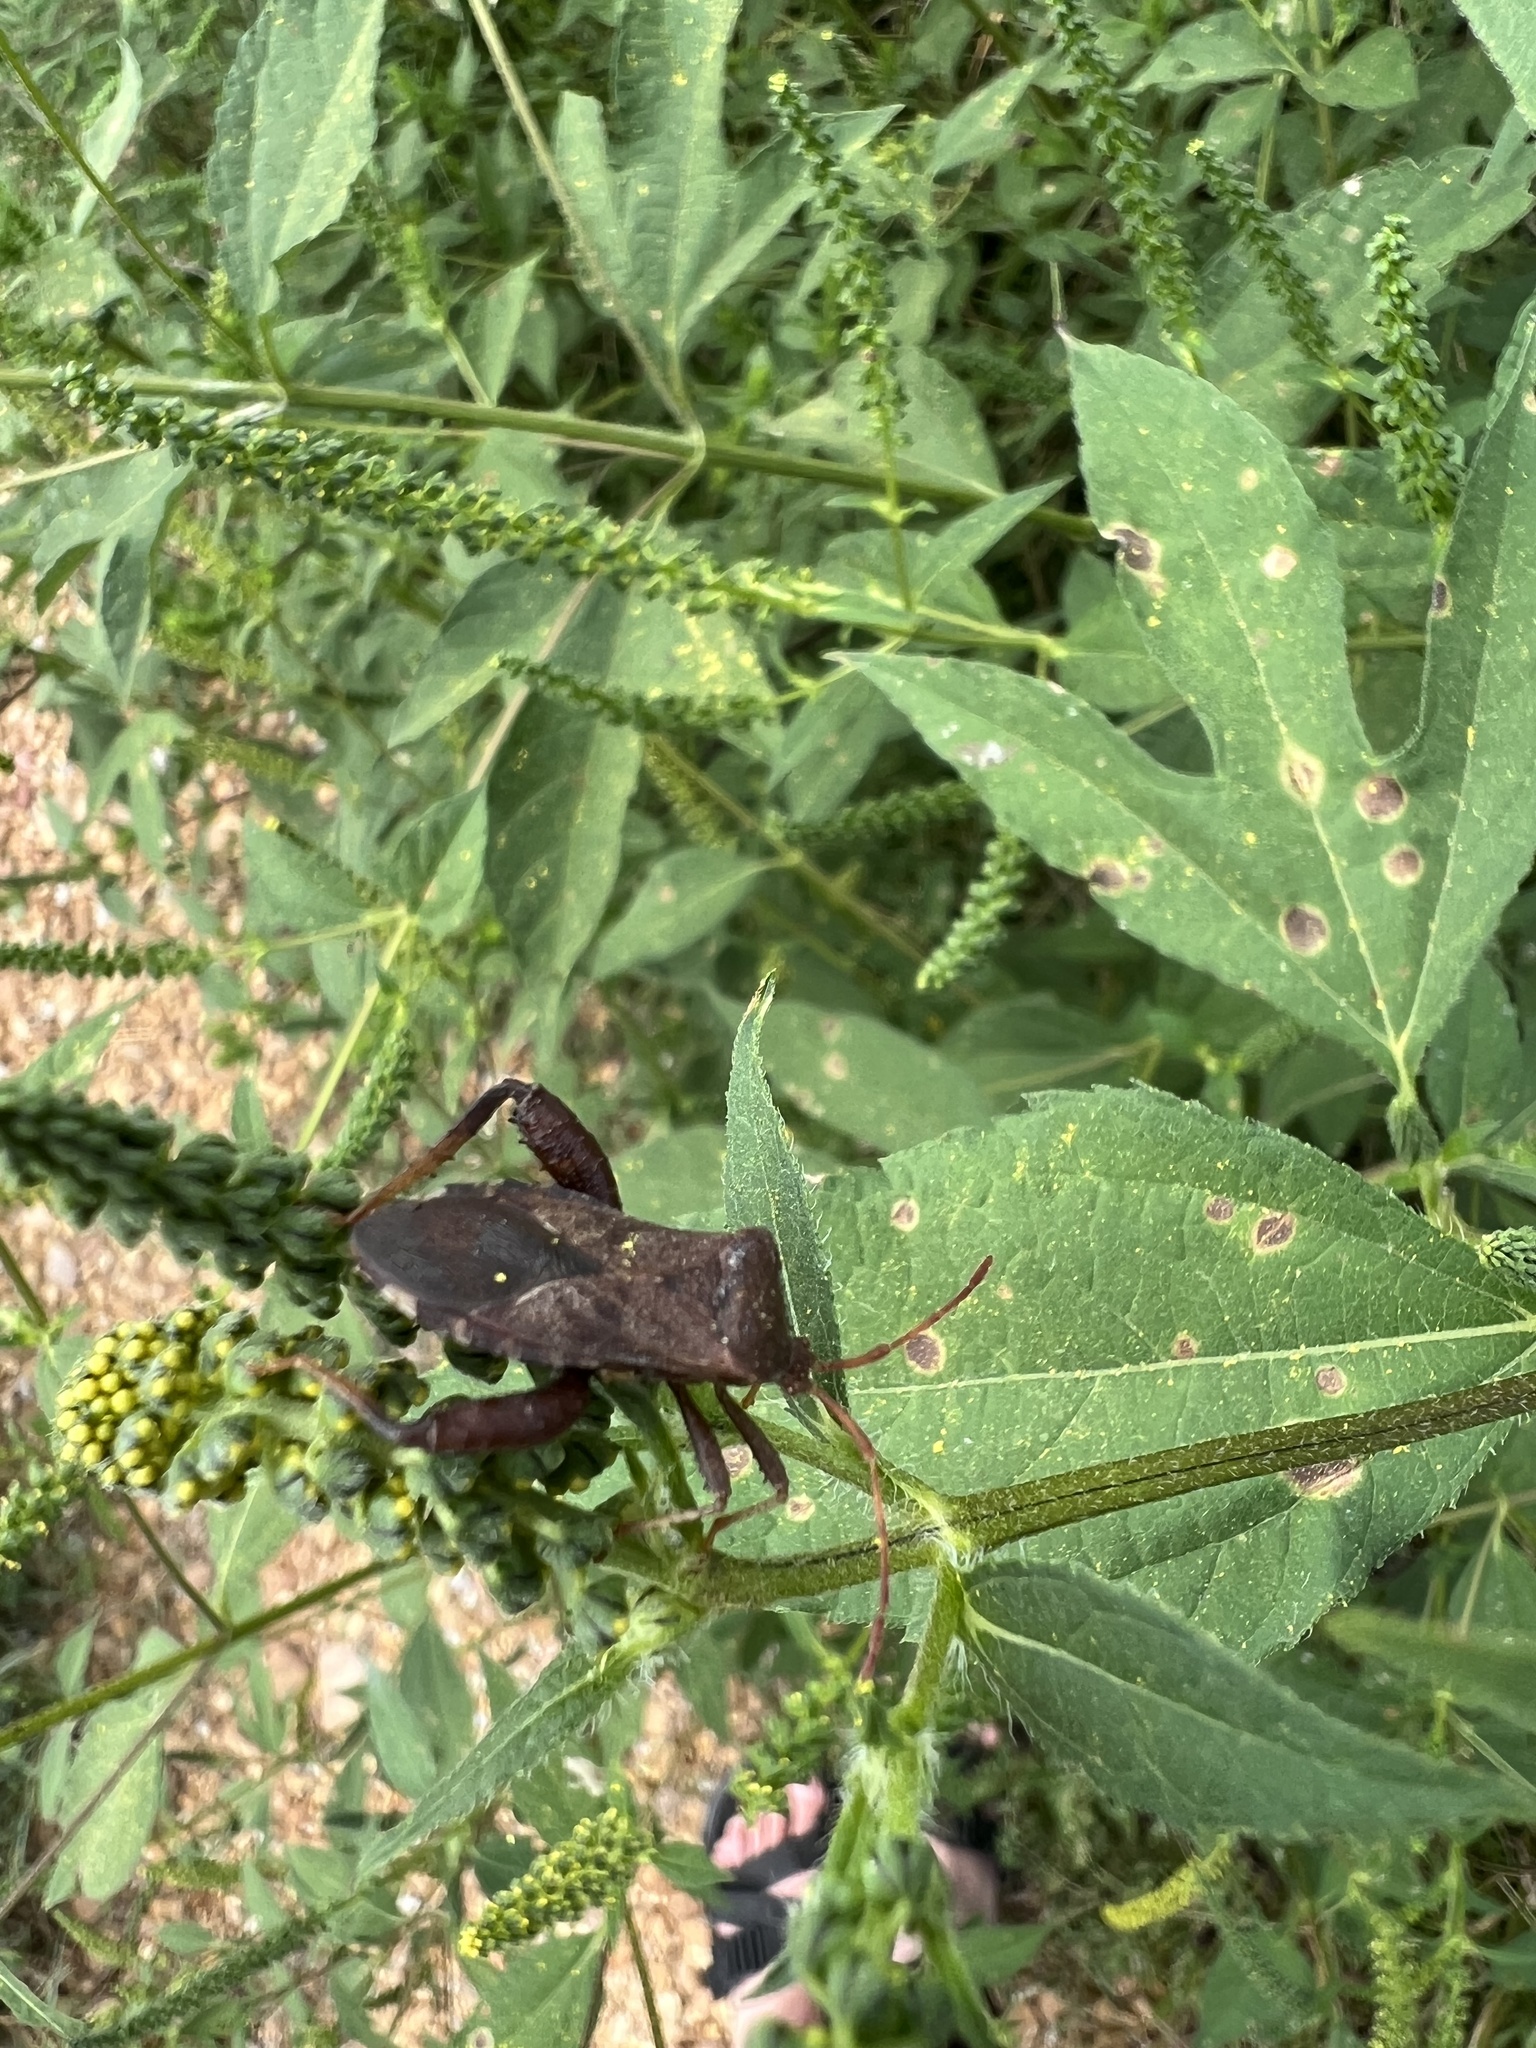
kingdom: Animalia
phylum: Arthropoda
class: Insecta
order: Hemiptera
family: Coreidae
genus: Euthochtha
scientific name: Euthochtha galeator
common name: Helmeted squash bug
